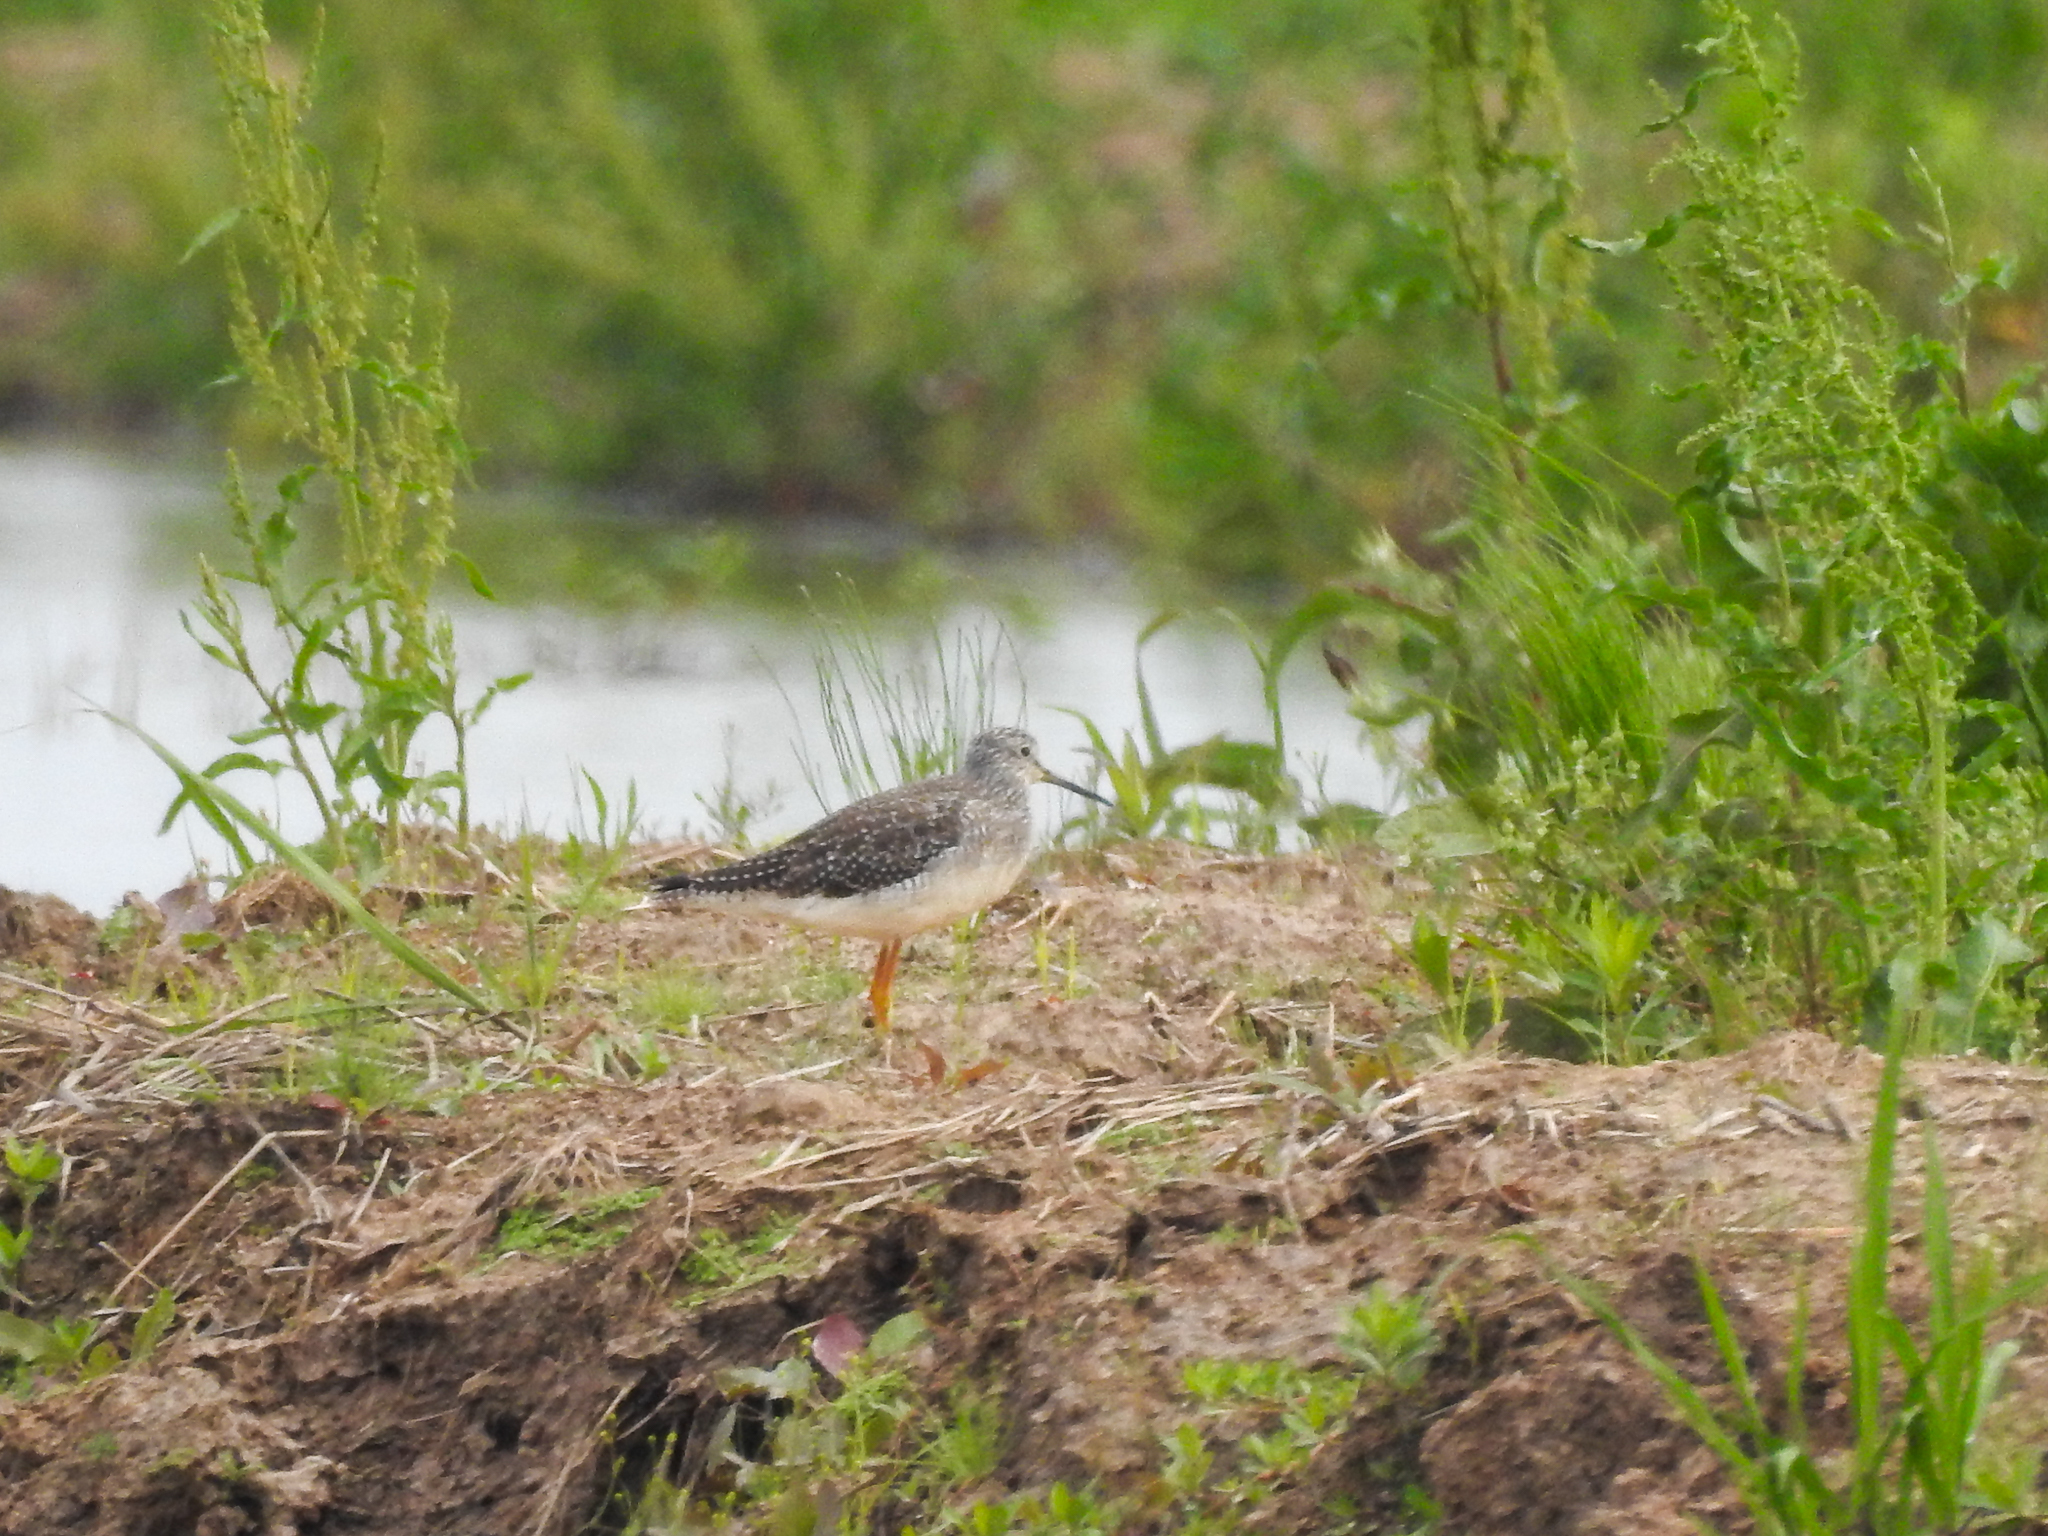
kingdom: Animalia
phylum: Chordata
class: Aves
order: Charadriiformes
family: Scolopacidae
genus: Tringa
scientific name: Tringa melanoleuca
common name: Greater yellowlegs
